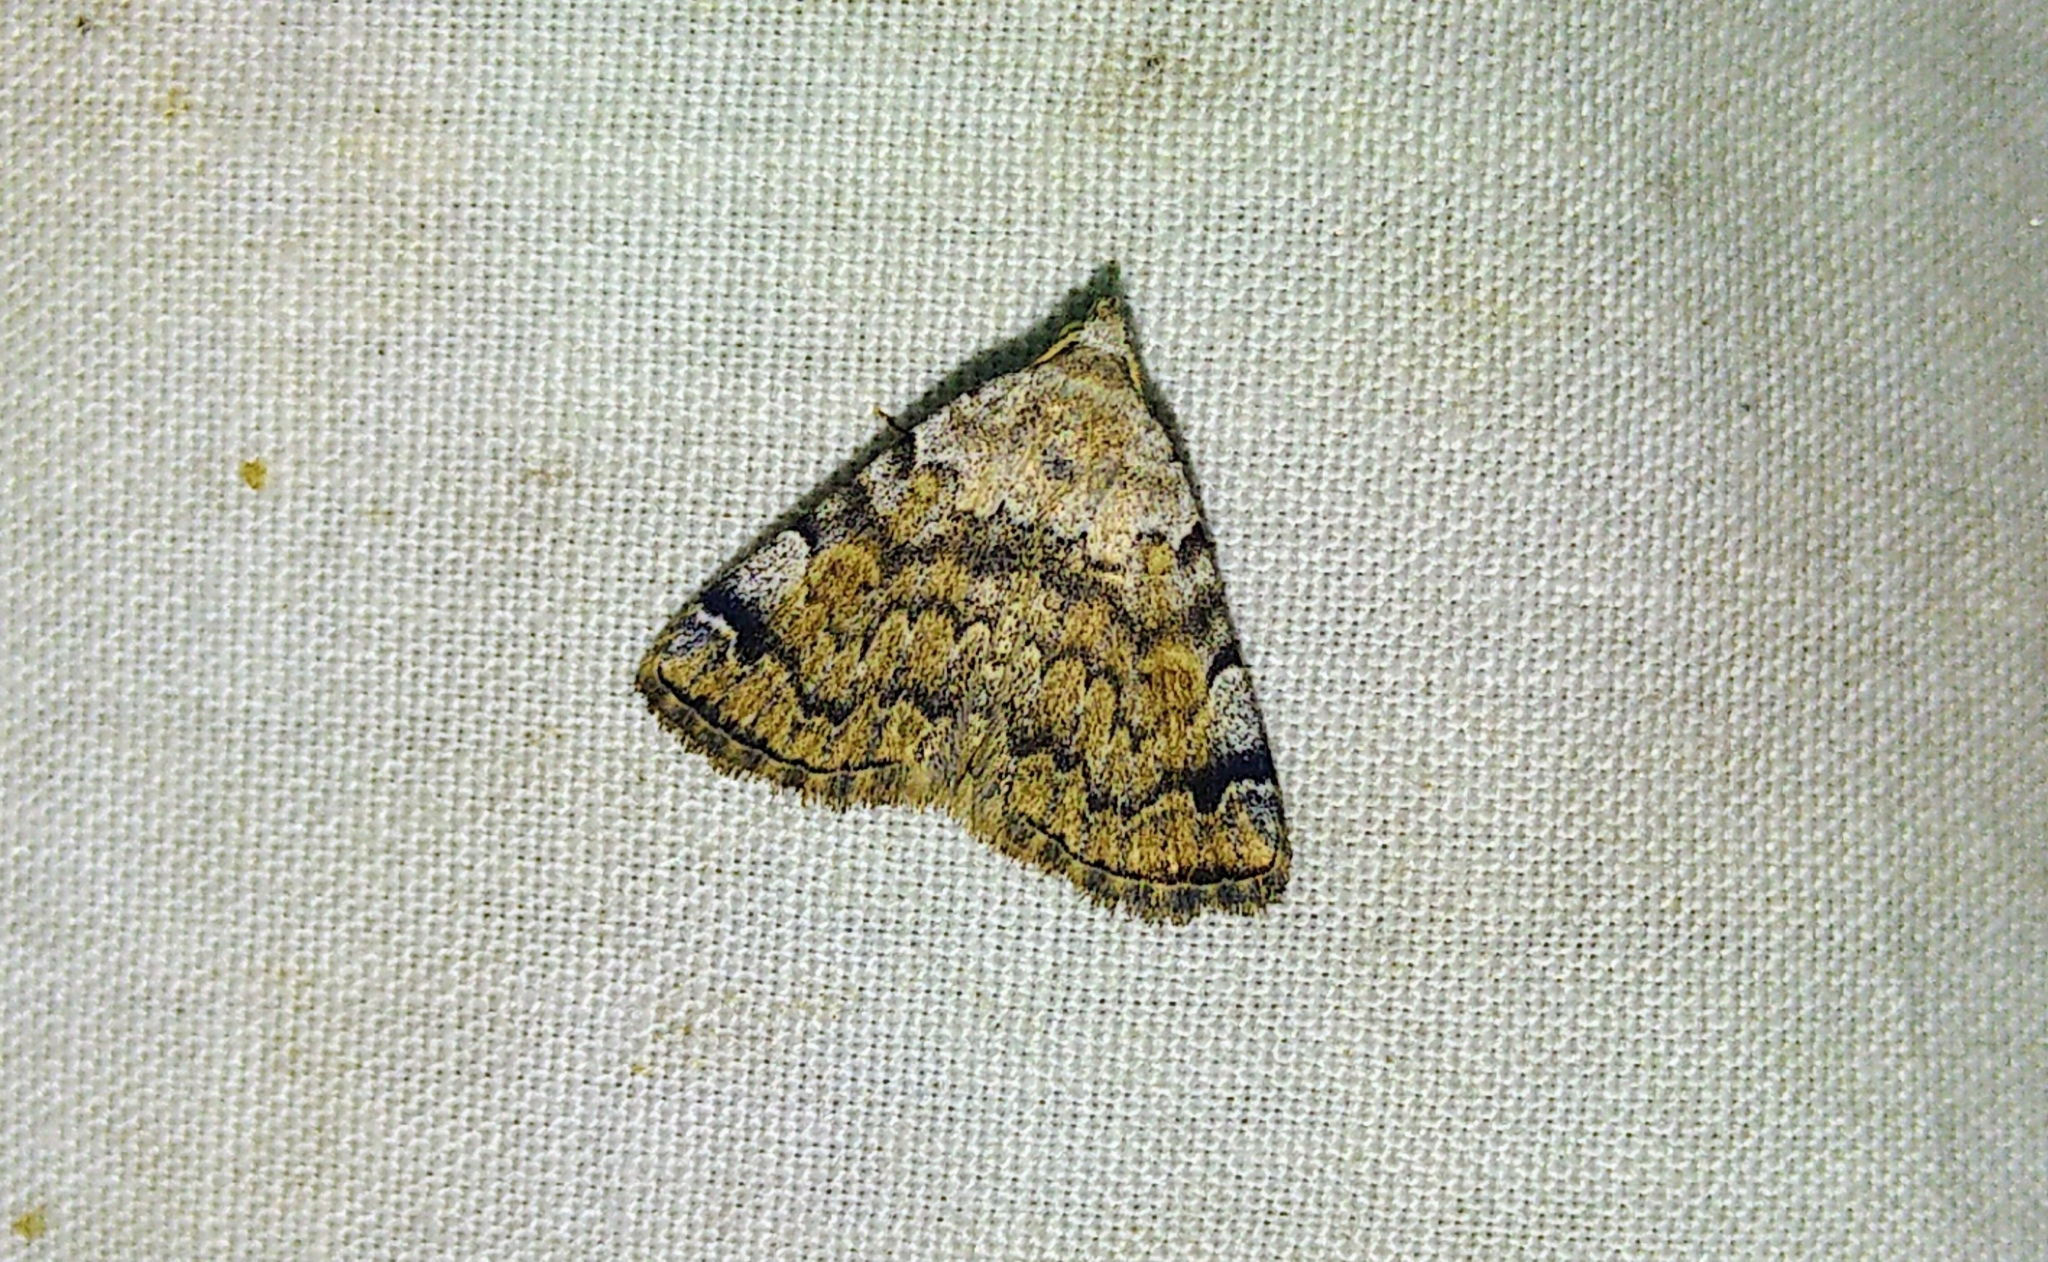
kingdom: Animalia
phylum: Arthropoda
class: Insecta
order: Lepidoptera
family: Erebidae
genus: Idia
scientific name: Idia americalis
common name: American idia moth
